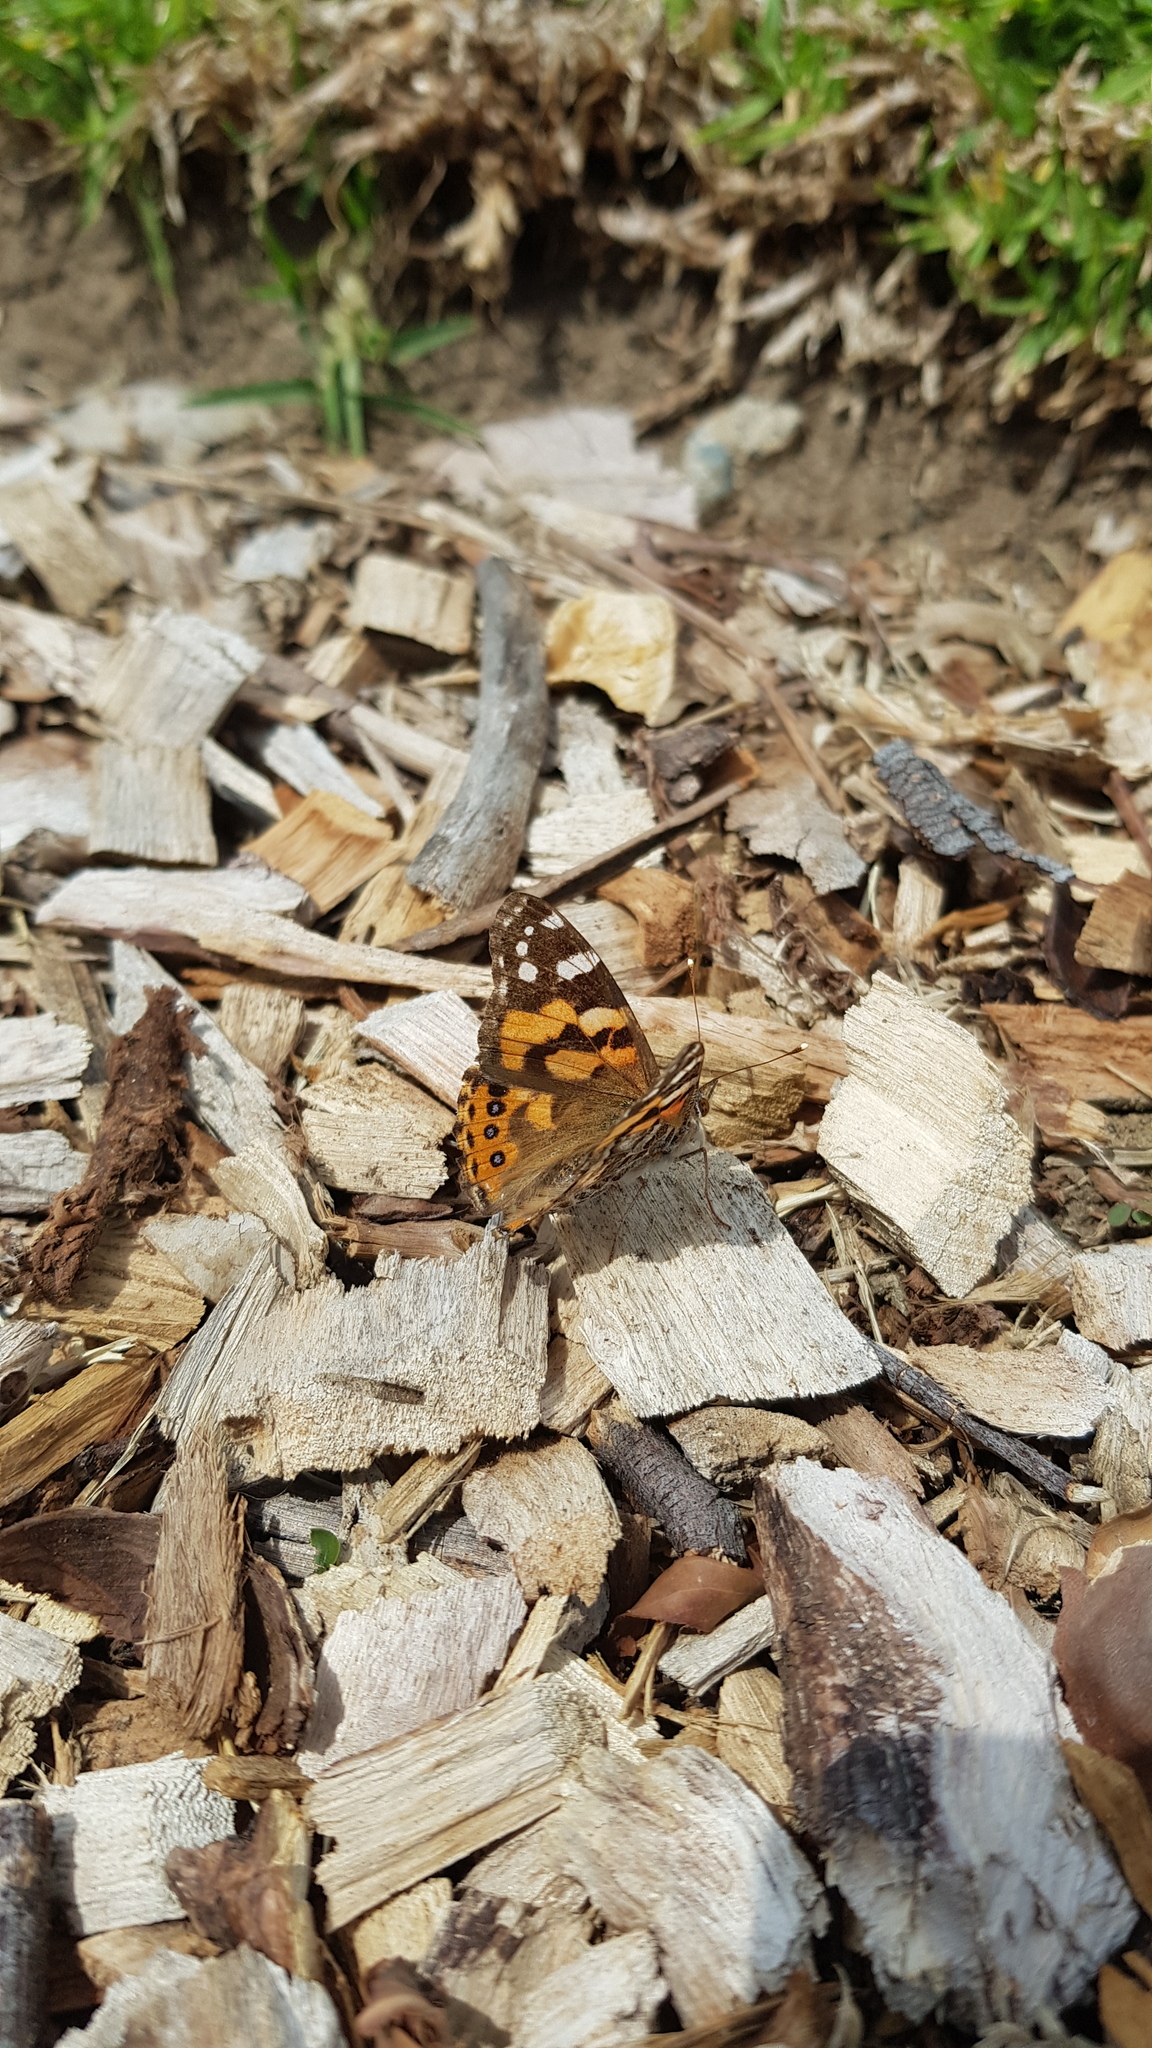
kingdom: Animalia
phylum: Arthropoda
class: Insecta
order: Lepidoptera
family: Nymphalidae
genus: Vanessa
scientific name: Vanessa kershawi
